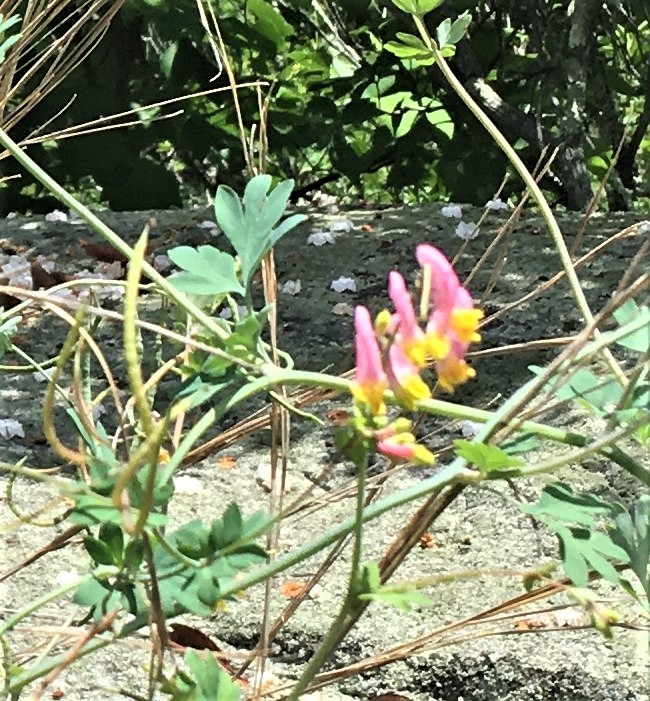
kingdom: Plantae
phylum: Tracheophyta
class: Magnoliopsida
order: Ranunculales
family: Papaveraceae
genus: Capnoides
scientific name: Capnoides sempervirens
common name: Rock harlequin
